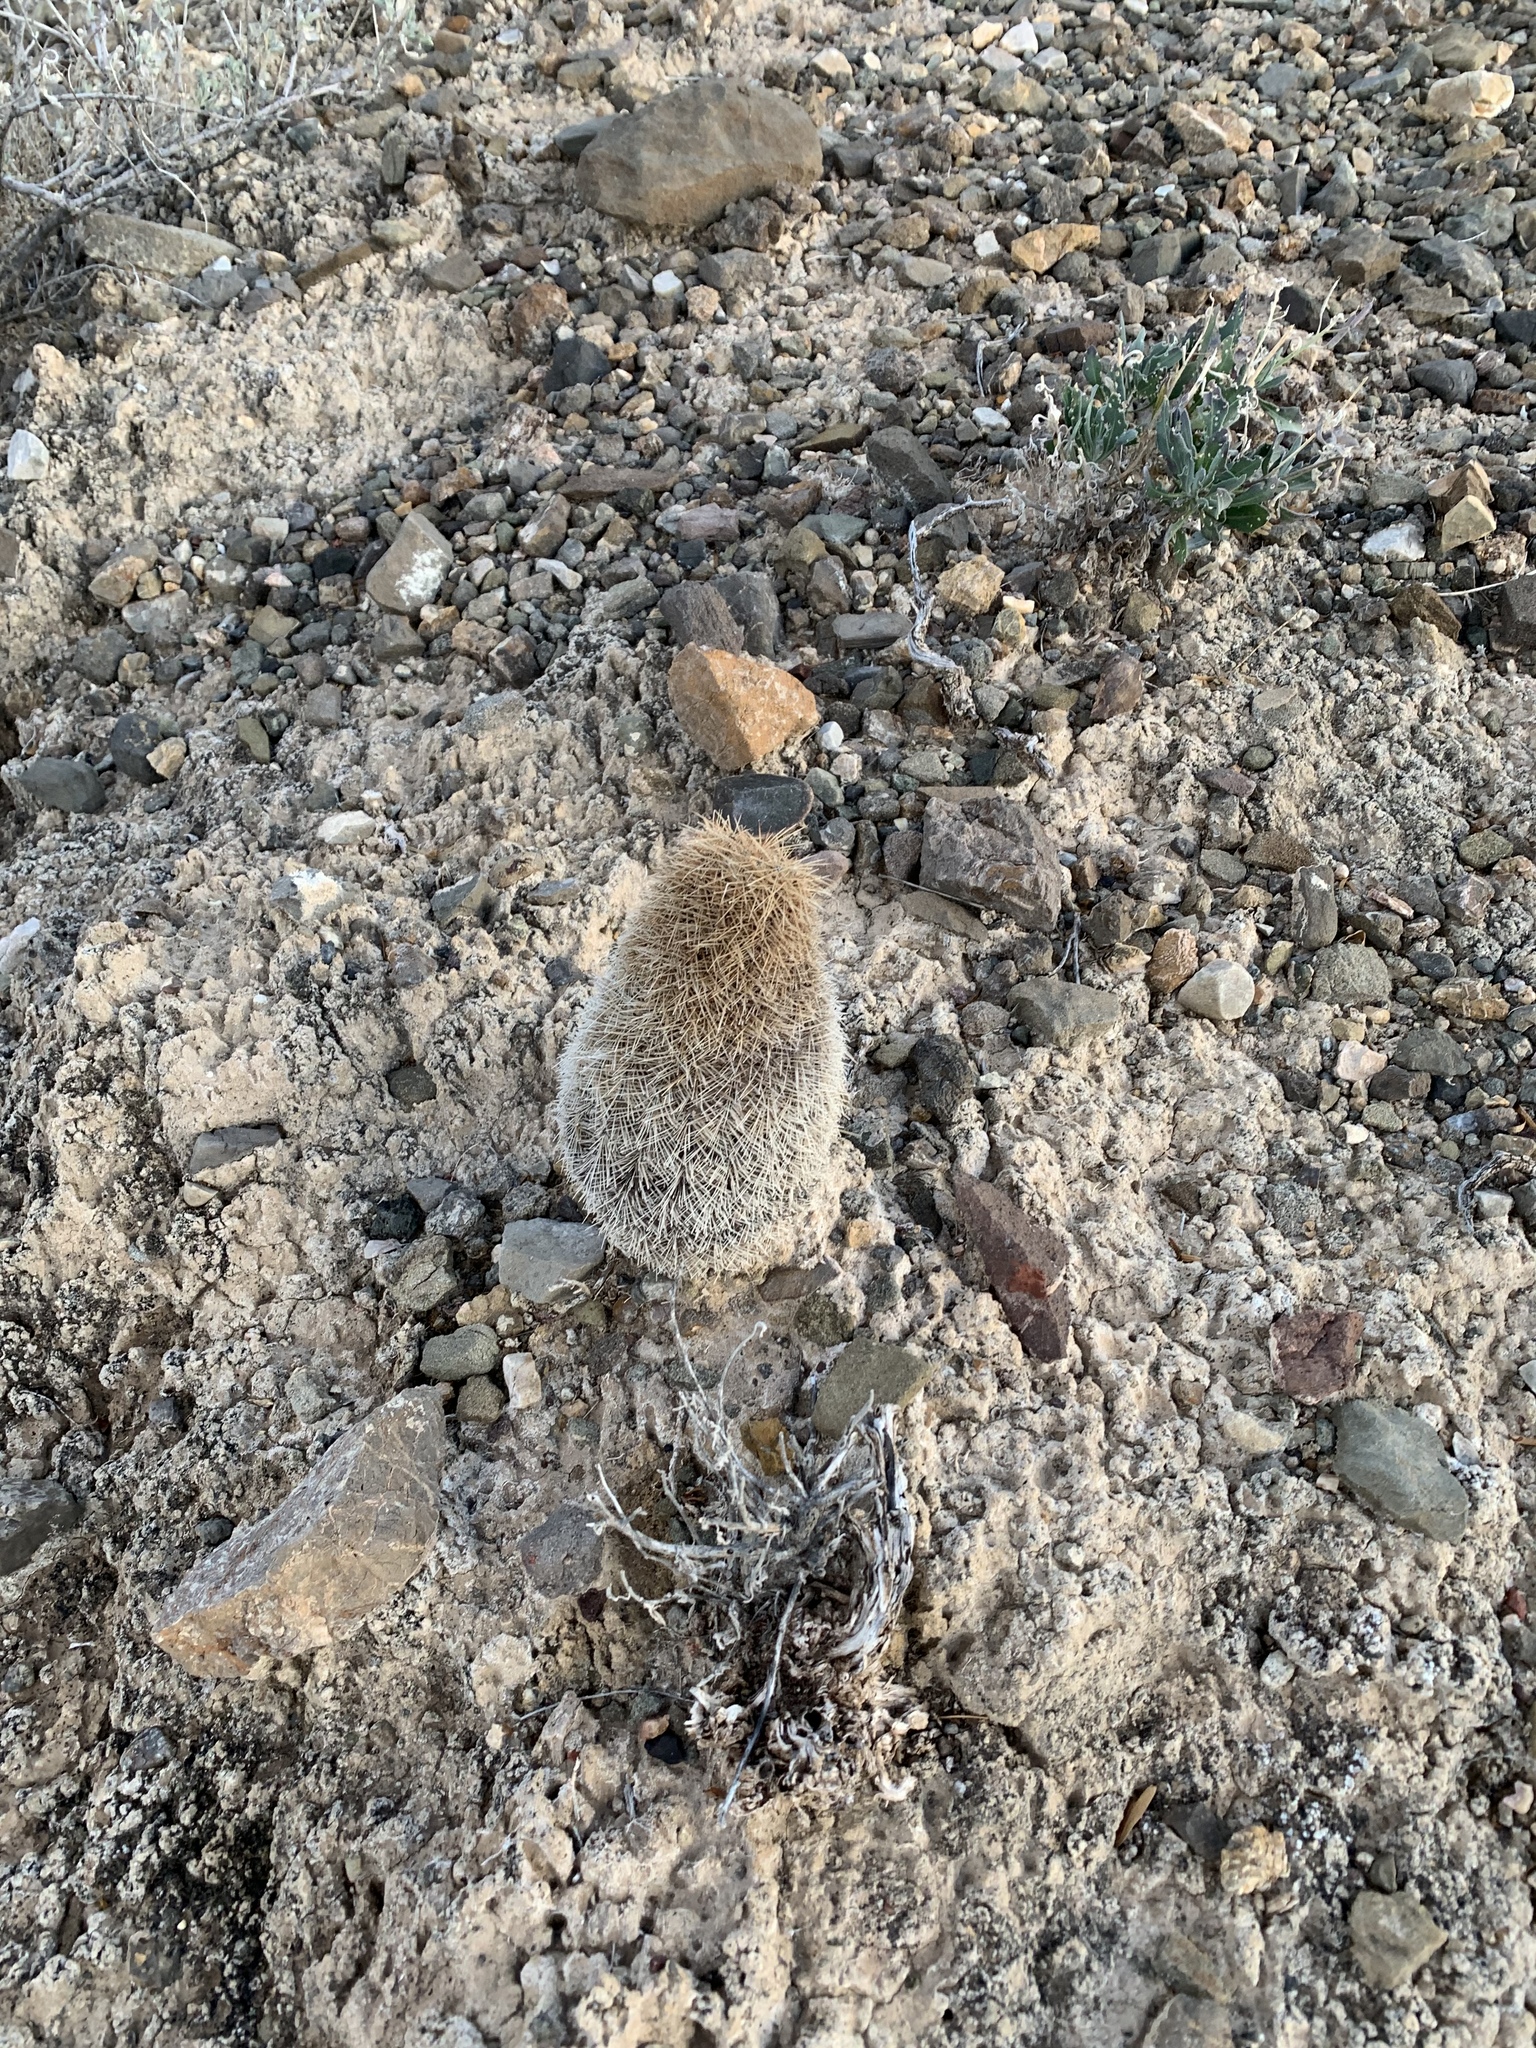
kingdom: Plantae
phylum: Tracheophyta
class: Magnoliopsida
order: Caryophyllales
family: Cactaceae
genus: Echinocereus
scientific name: Echinocereus dasyacanthus
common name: Spiny hedgehog cactus
